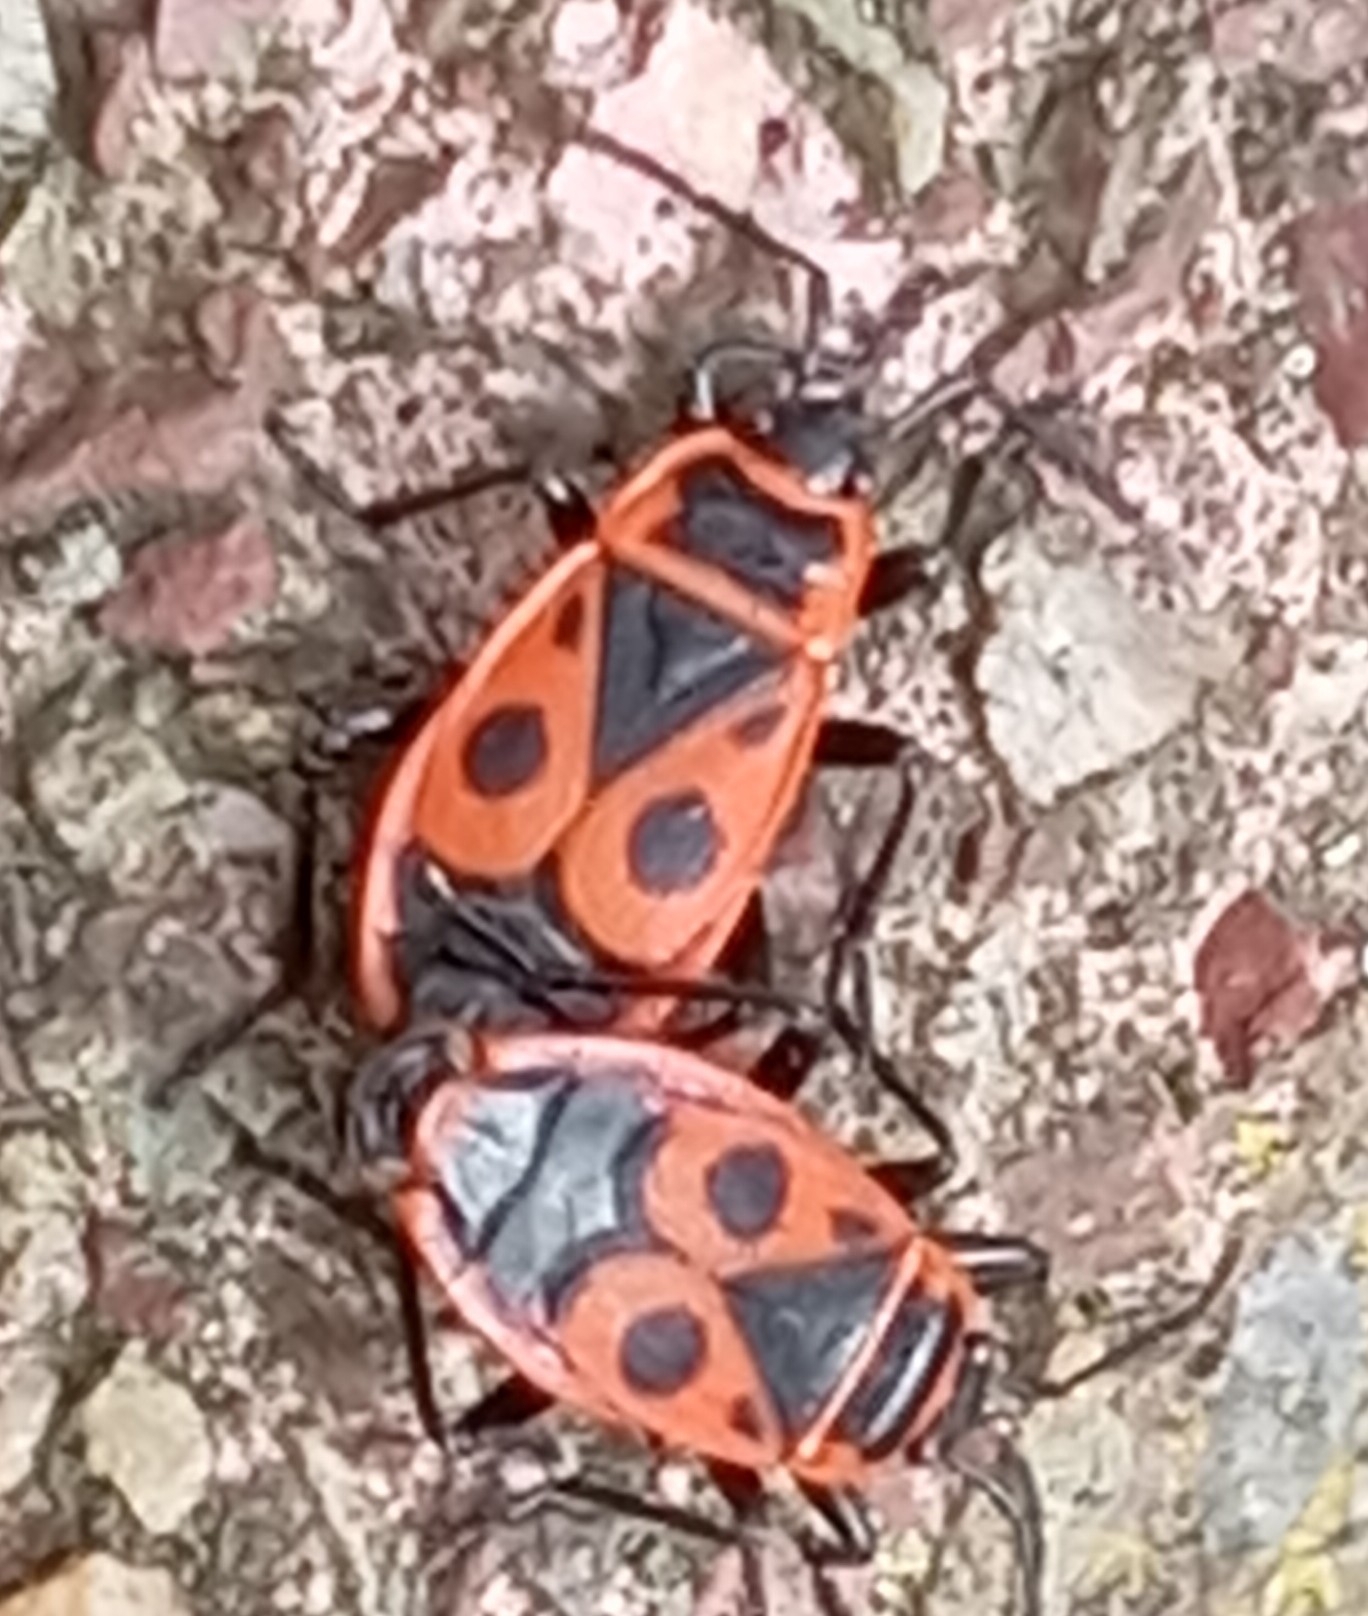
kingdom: Animalia
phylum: Arthropoda
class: Insecta
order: Hemiptera
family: Pyrrhocoridae
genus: Pyrrhocoris
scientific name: Pyrrhocoris apterus
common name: Firebug
